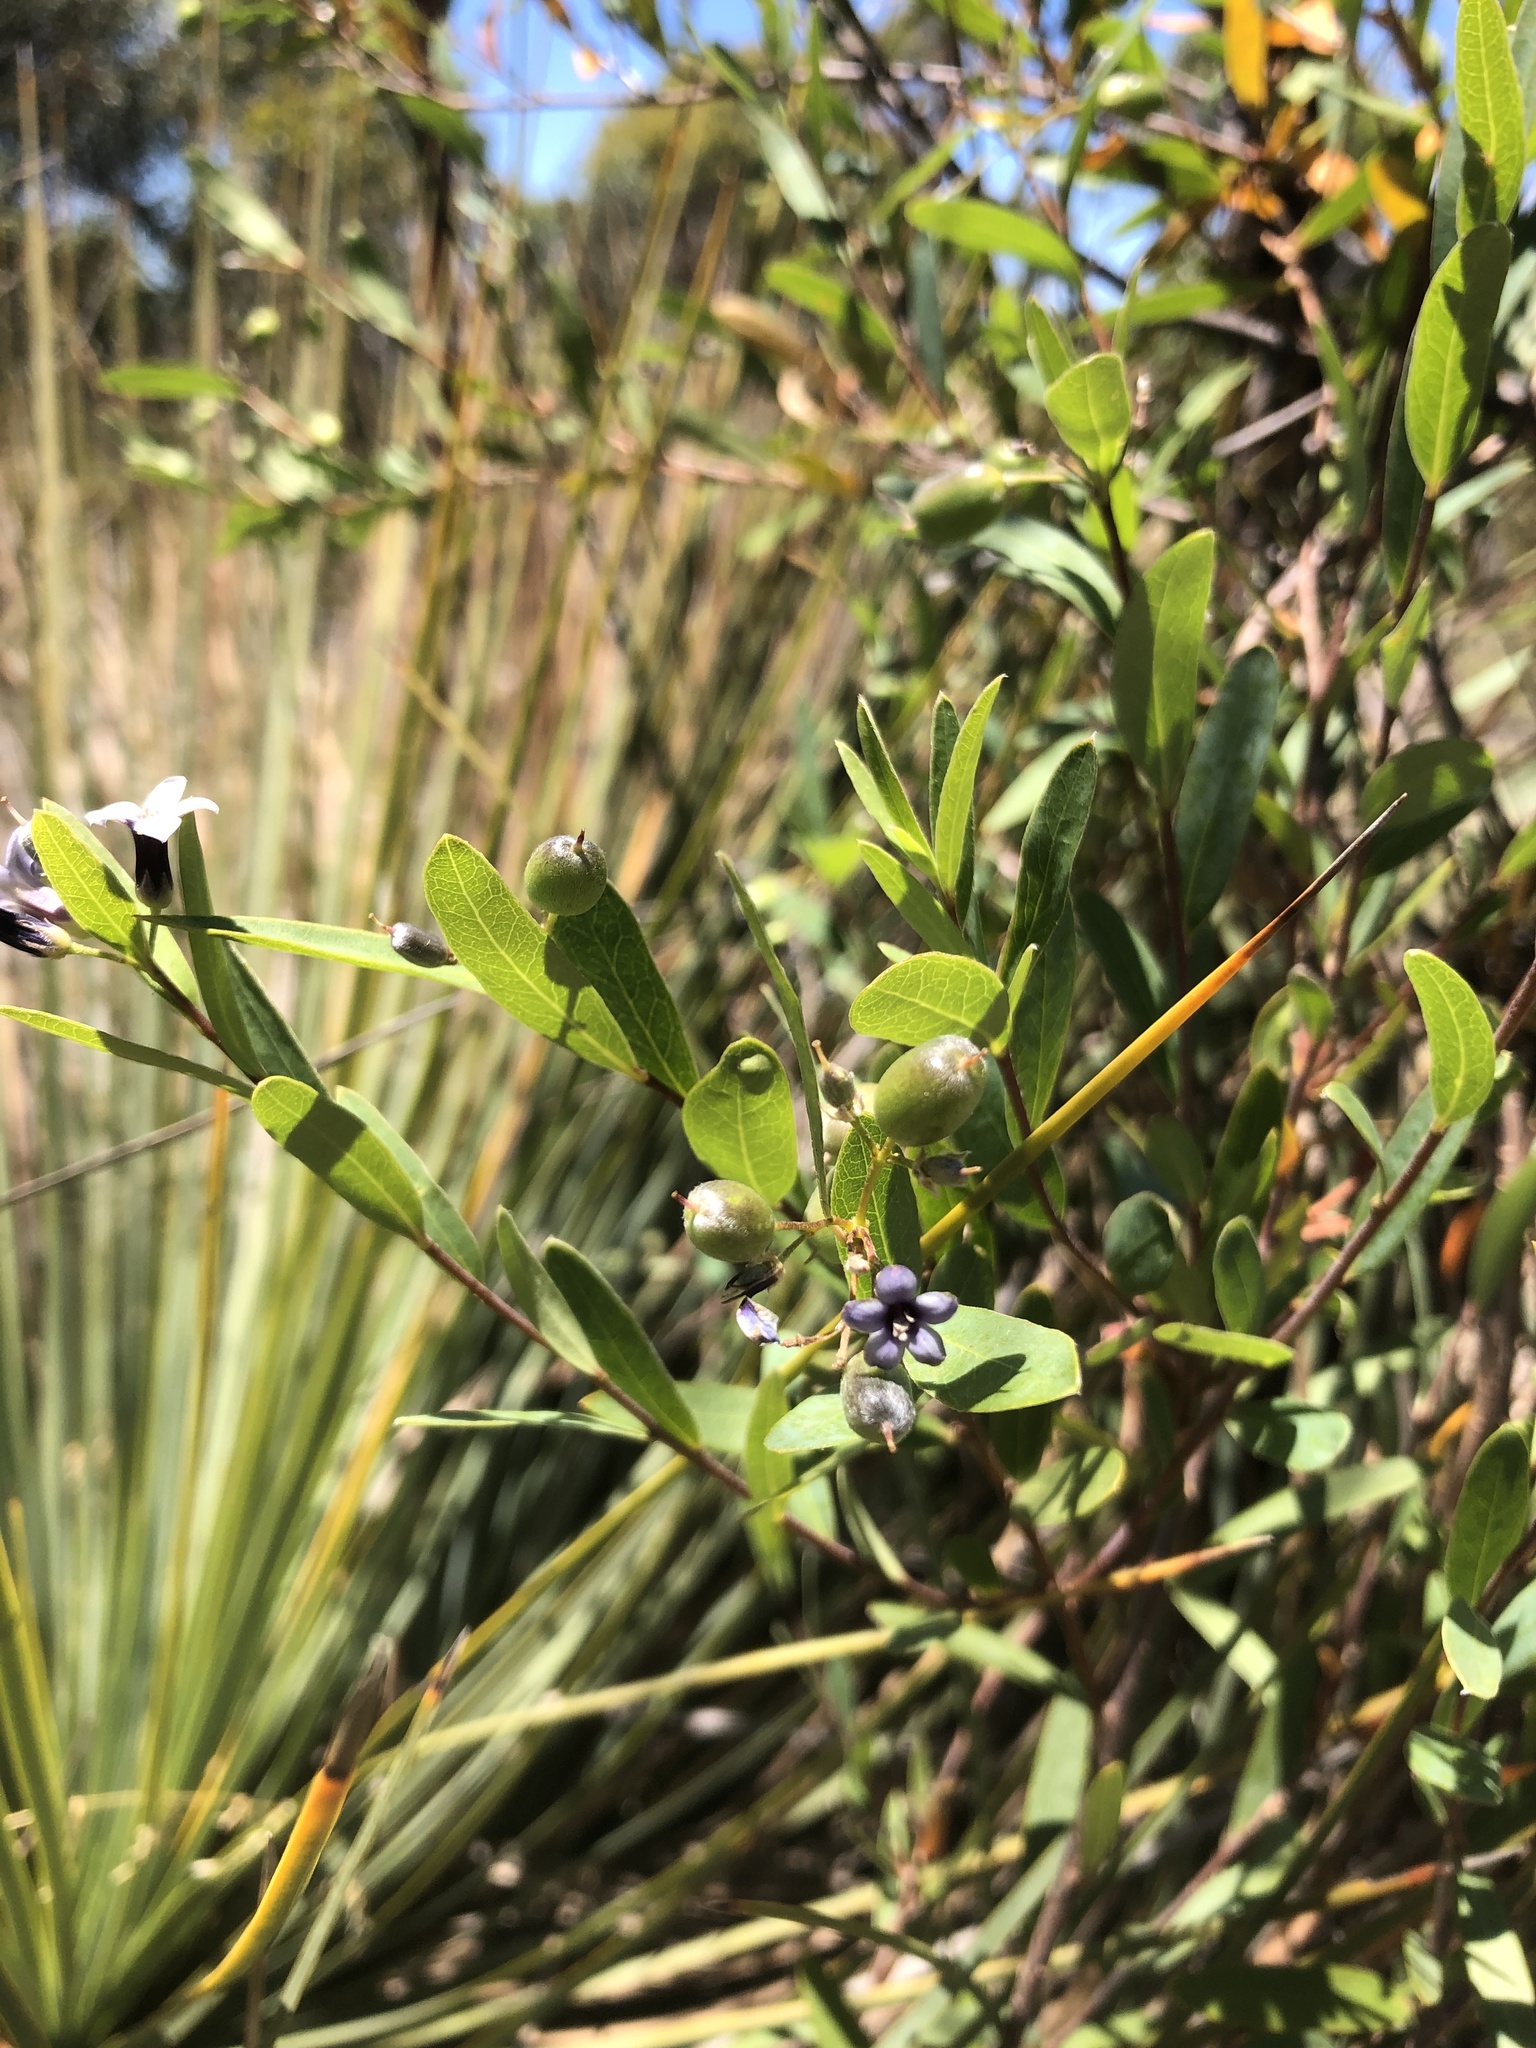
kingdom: Plantae
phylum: Tracheophyta
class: Magnoliopsida
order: Apiales
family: Pittosporaceae
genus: Billardiera
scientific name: Billardiera cymosa
